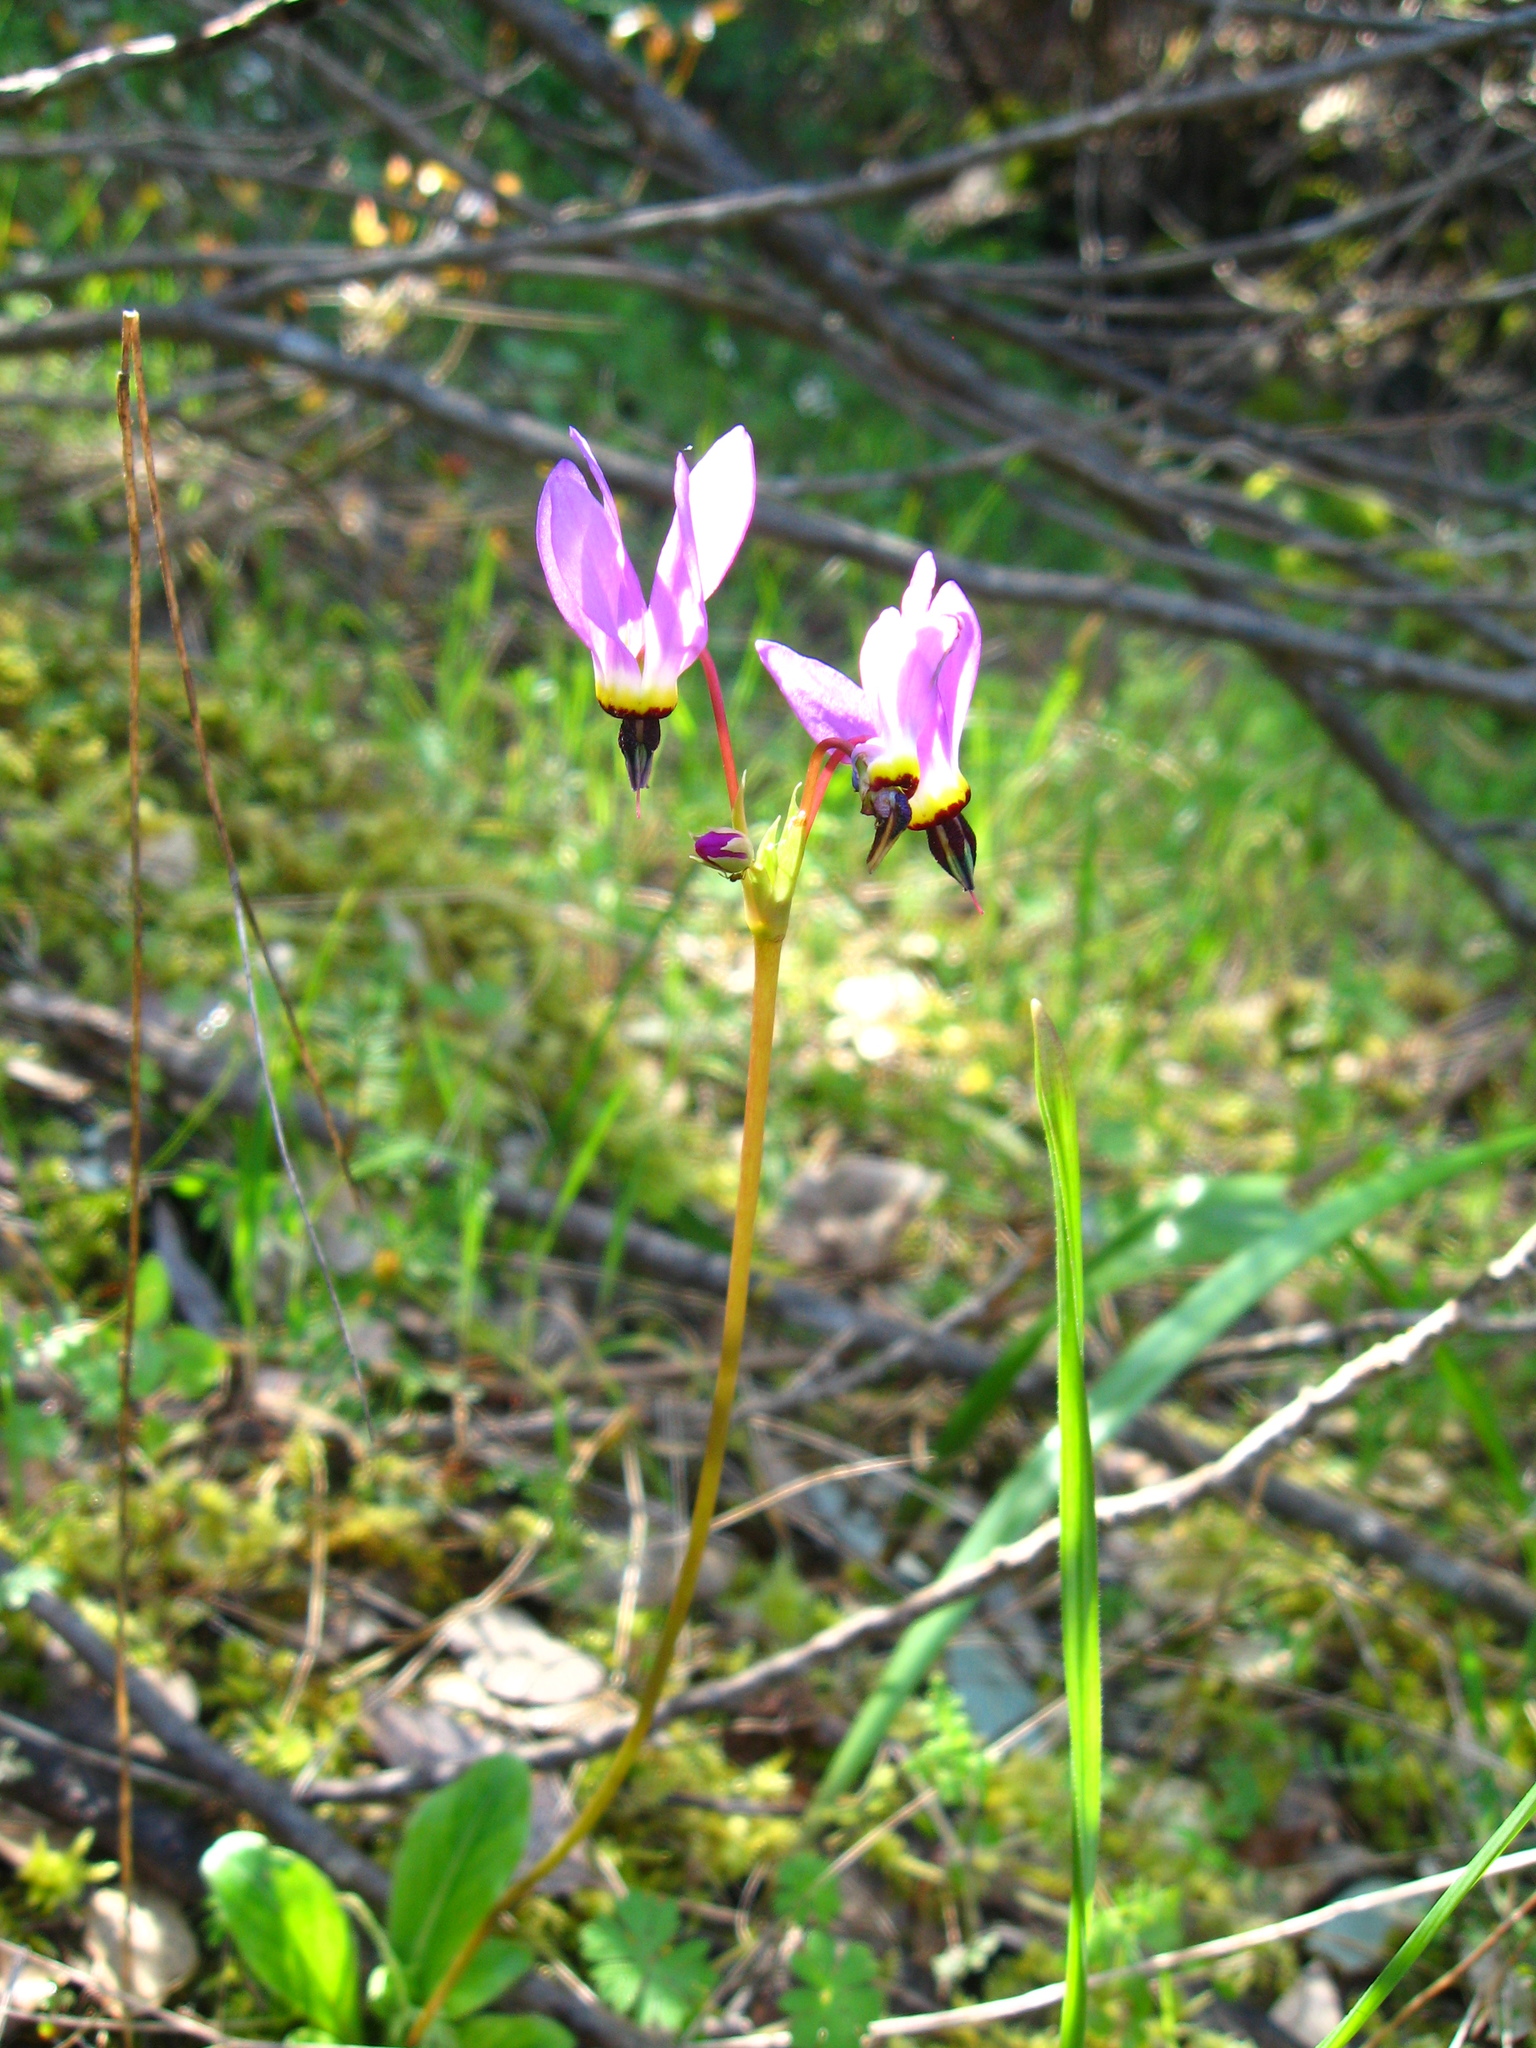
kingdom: Plantae
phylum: Tracheophyta
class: Magnoliopsida
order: Ericales
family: Primulaceae
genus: Dodecatheon
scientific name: Dodecatheon hendersonii
